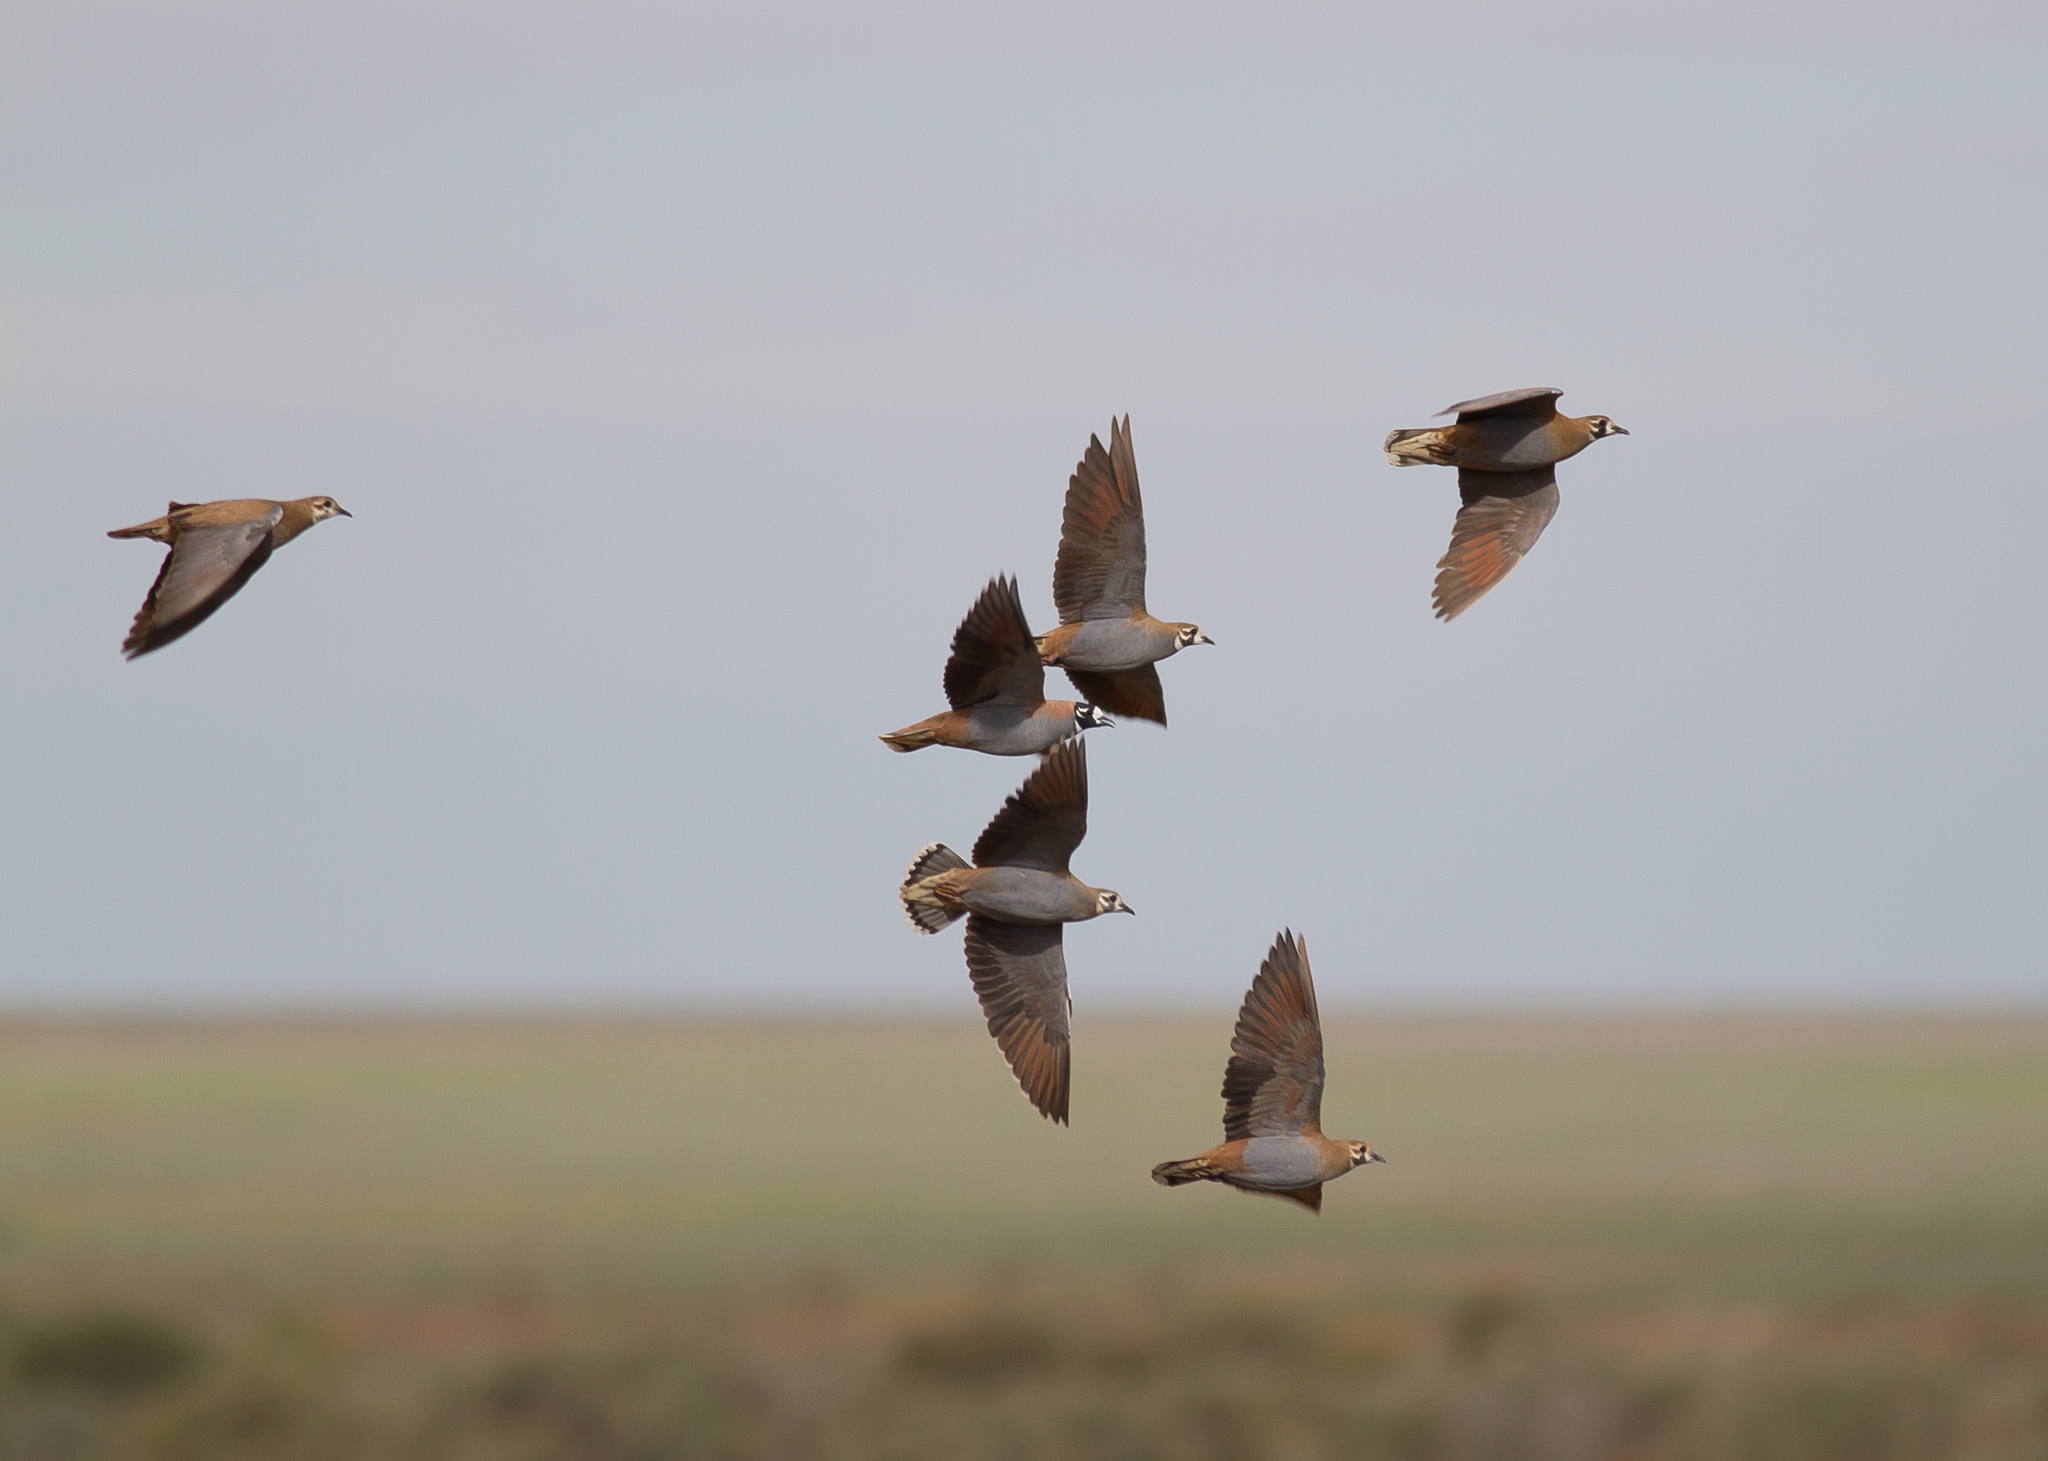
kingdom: Animalia
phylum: Chordata
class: Aves
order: Columbiformes
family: Columbidae
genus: Phaps
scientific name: Phaps histrionica
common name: Flock bronzewing
